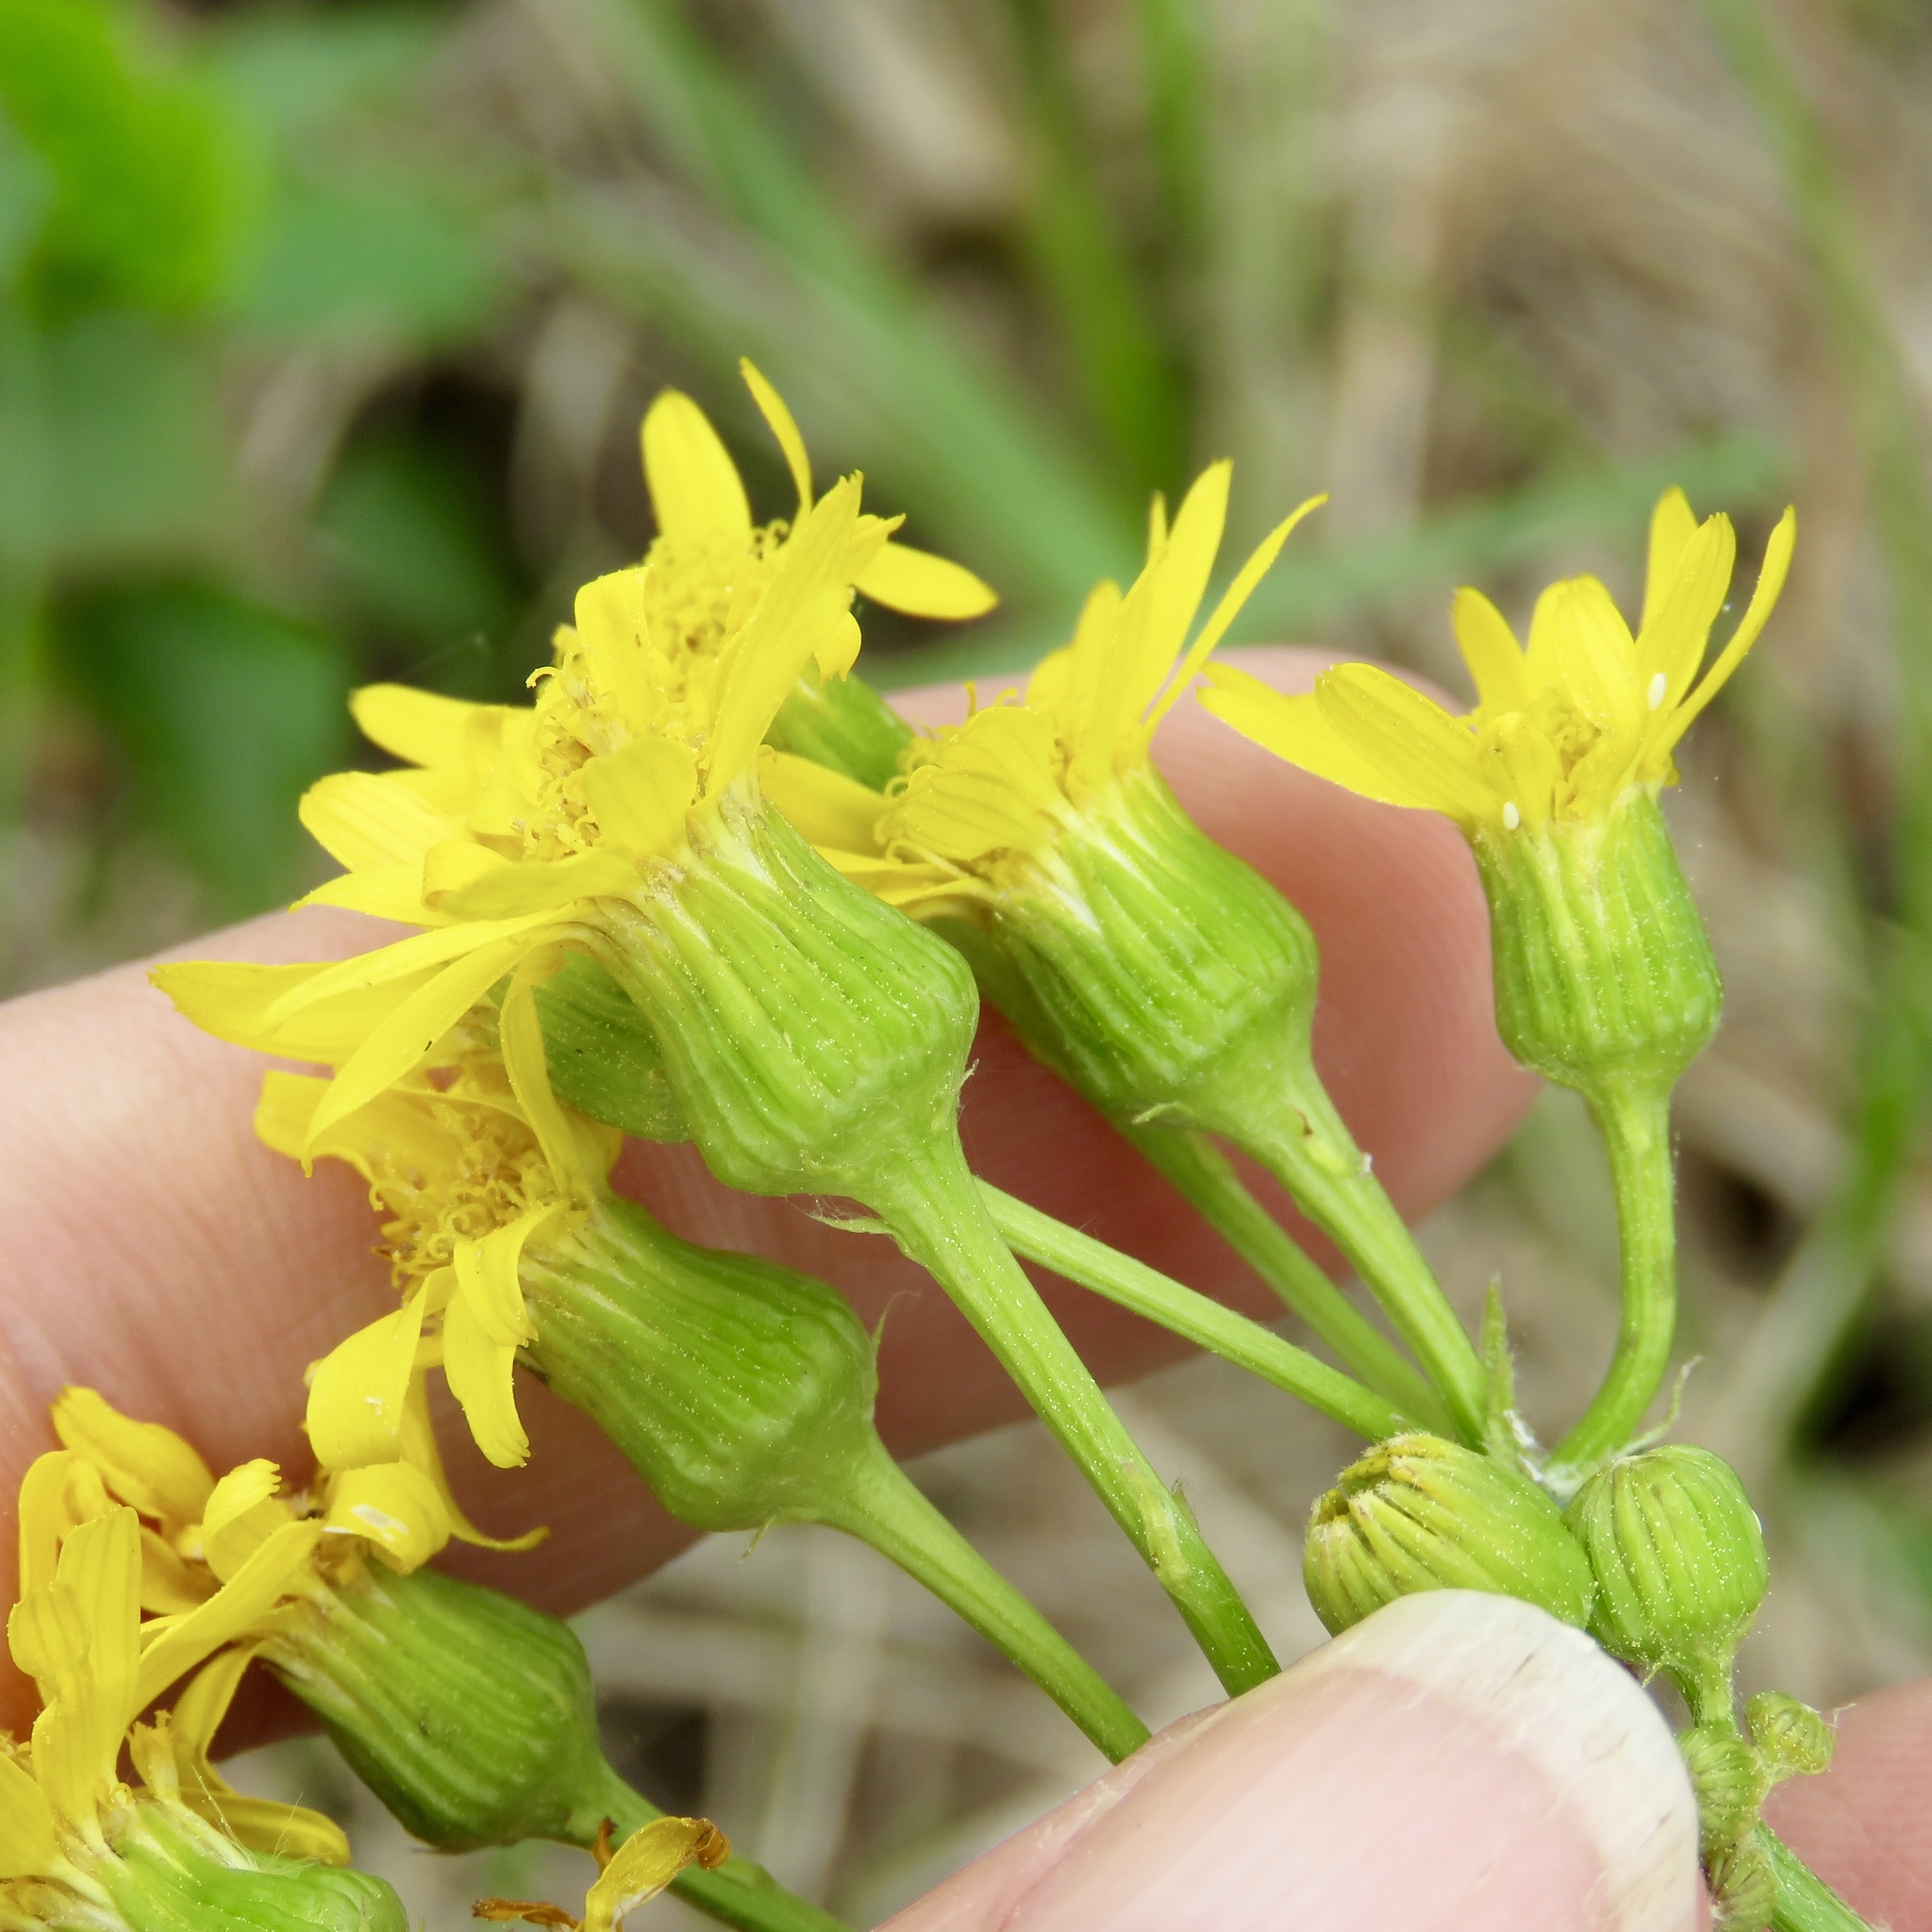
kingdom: Plantae
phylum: Tracheophyta
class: Magnoliopsida
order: Asterales
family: Asteraceae
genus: Packera
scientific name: Packera dubia
